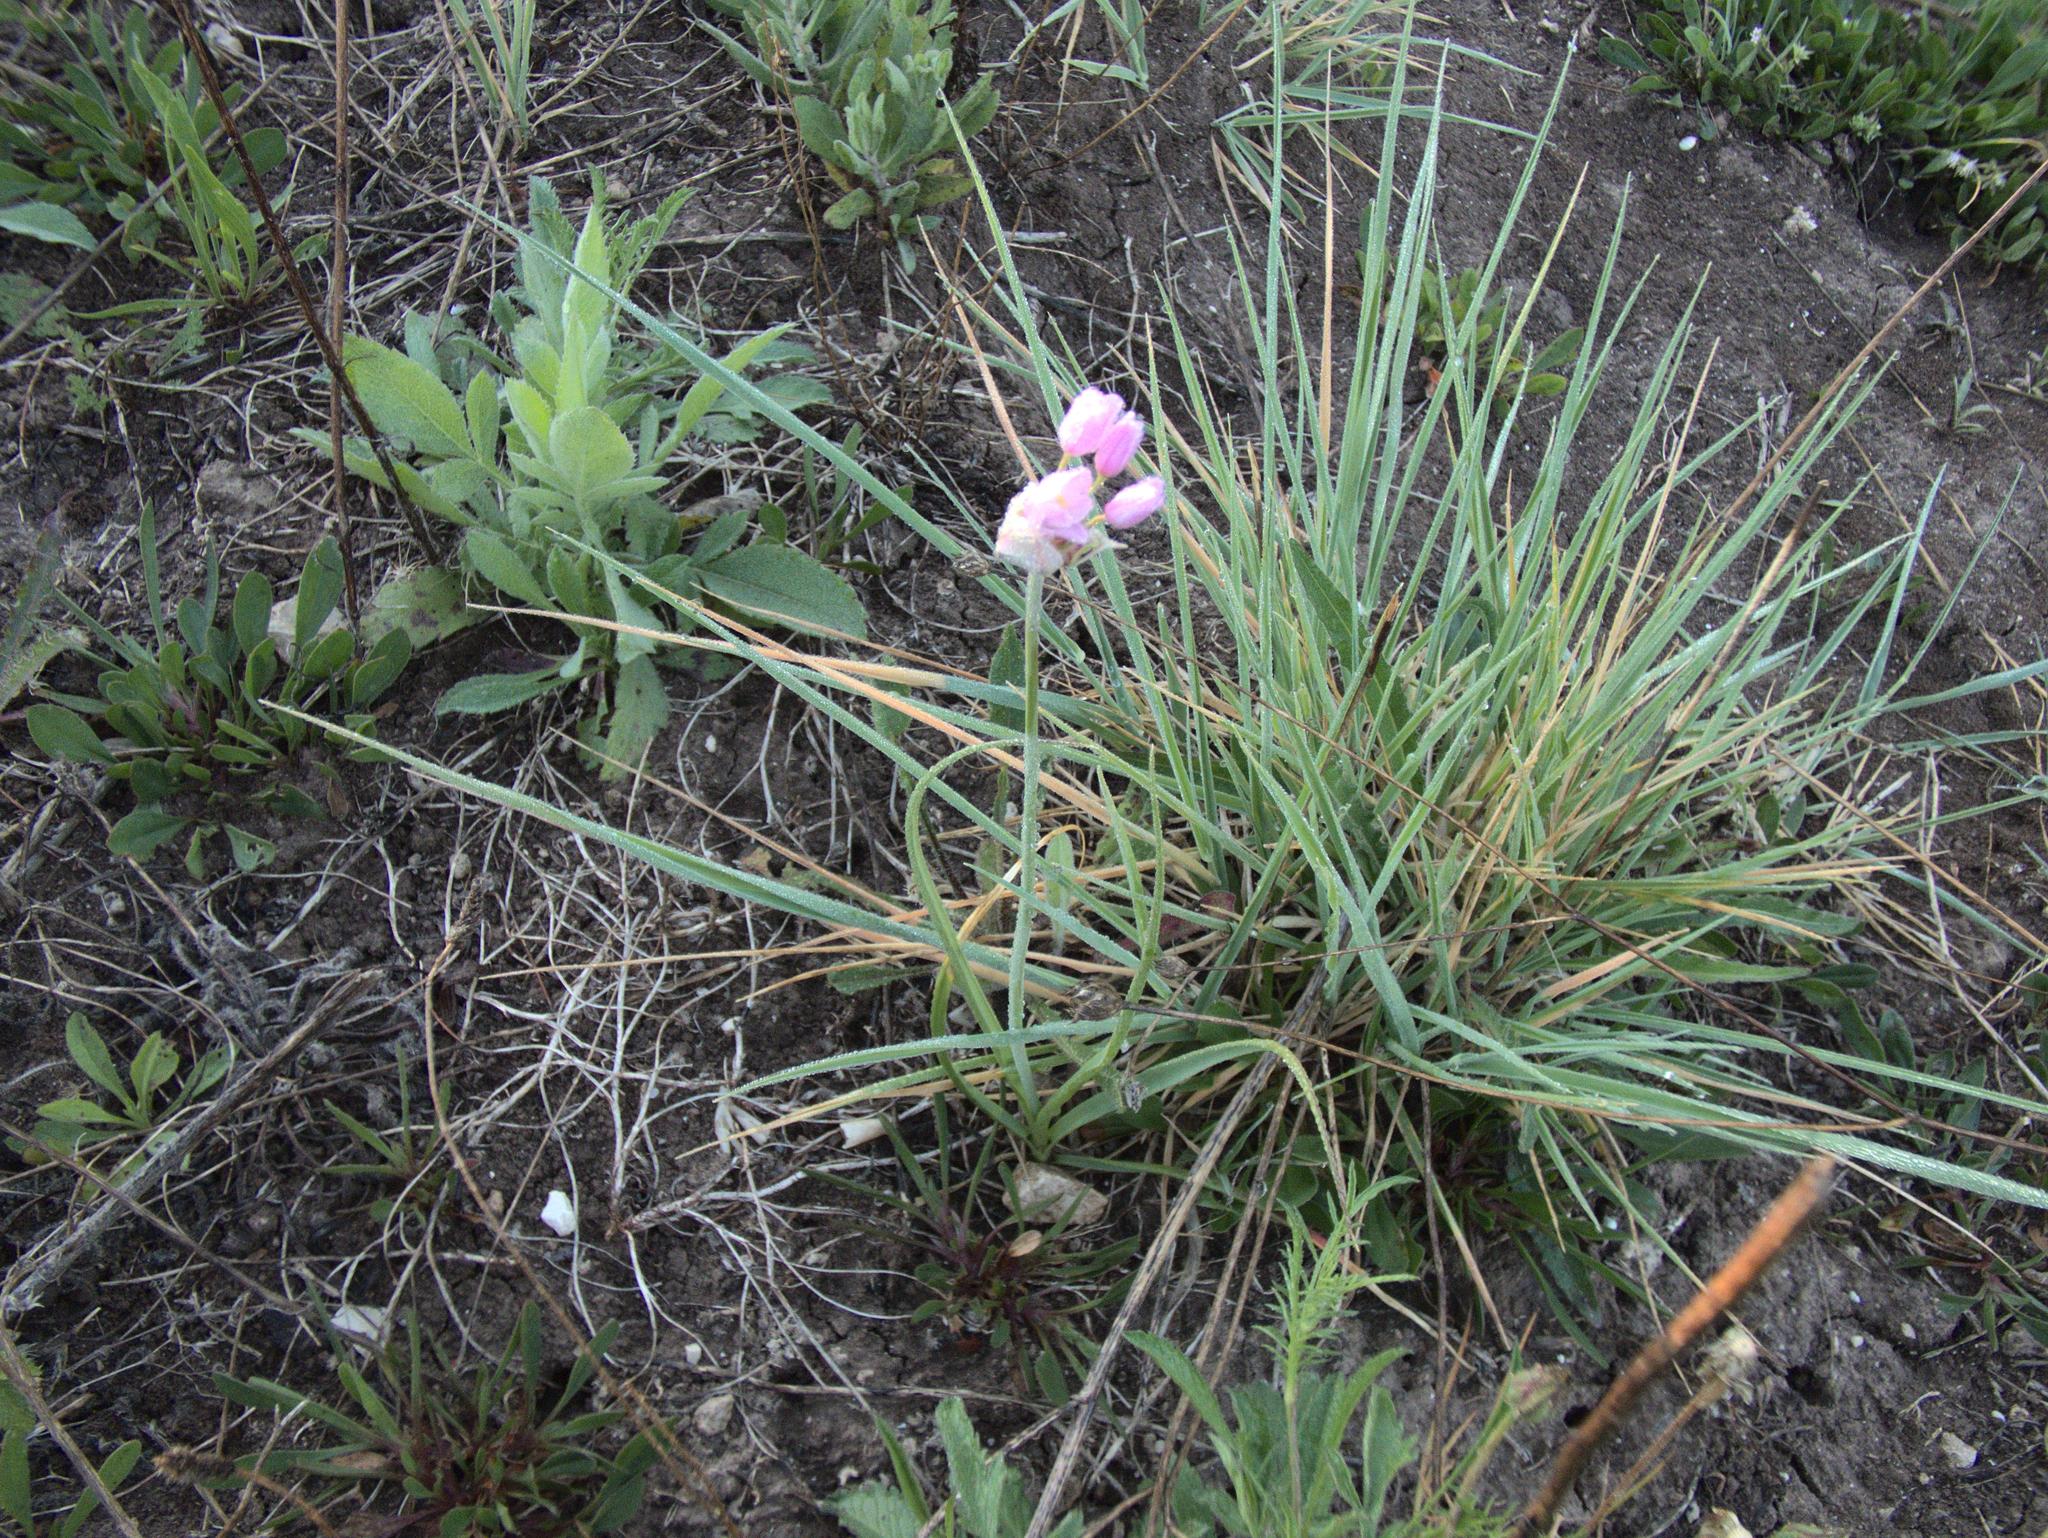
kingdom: Plantae
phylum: Tracheophyta
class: Liliopsida
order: Asparagales
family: Amaryllidaceae
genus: Allium
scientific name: Allium roseum
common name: Rosy garlic
